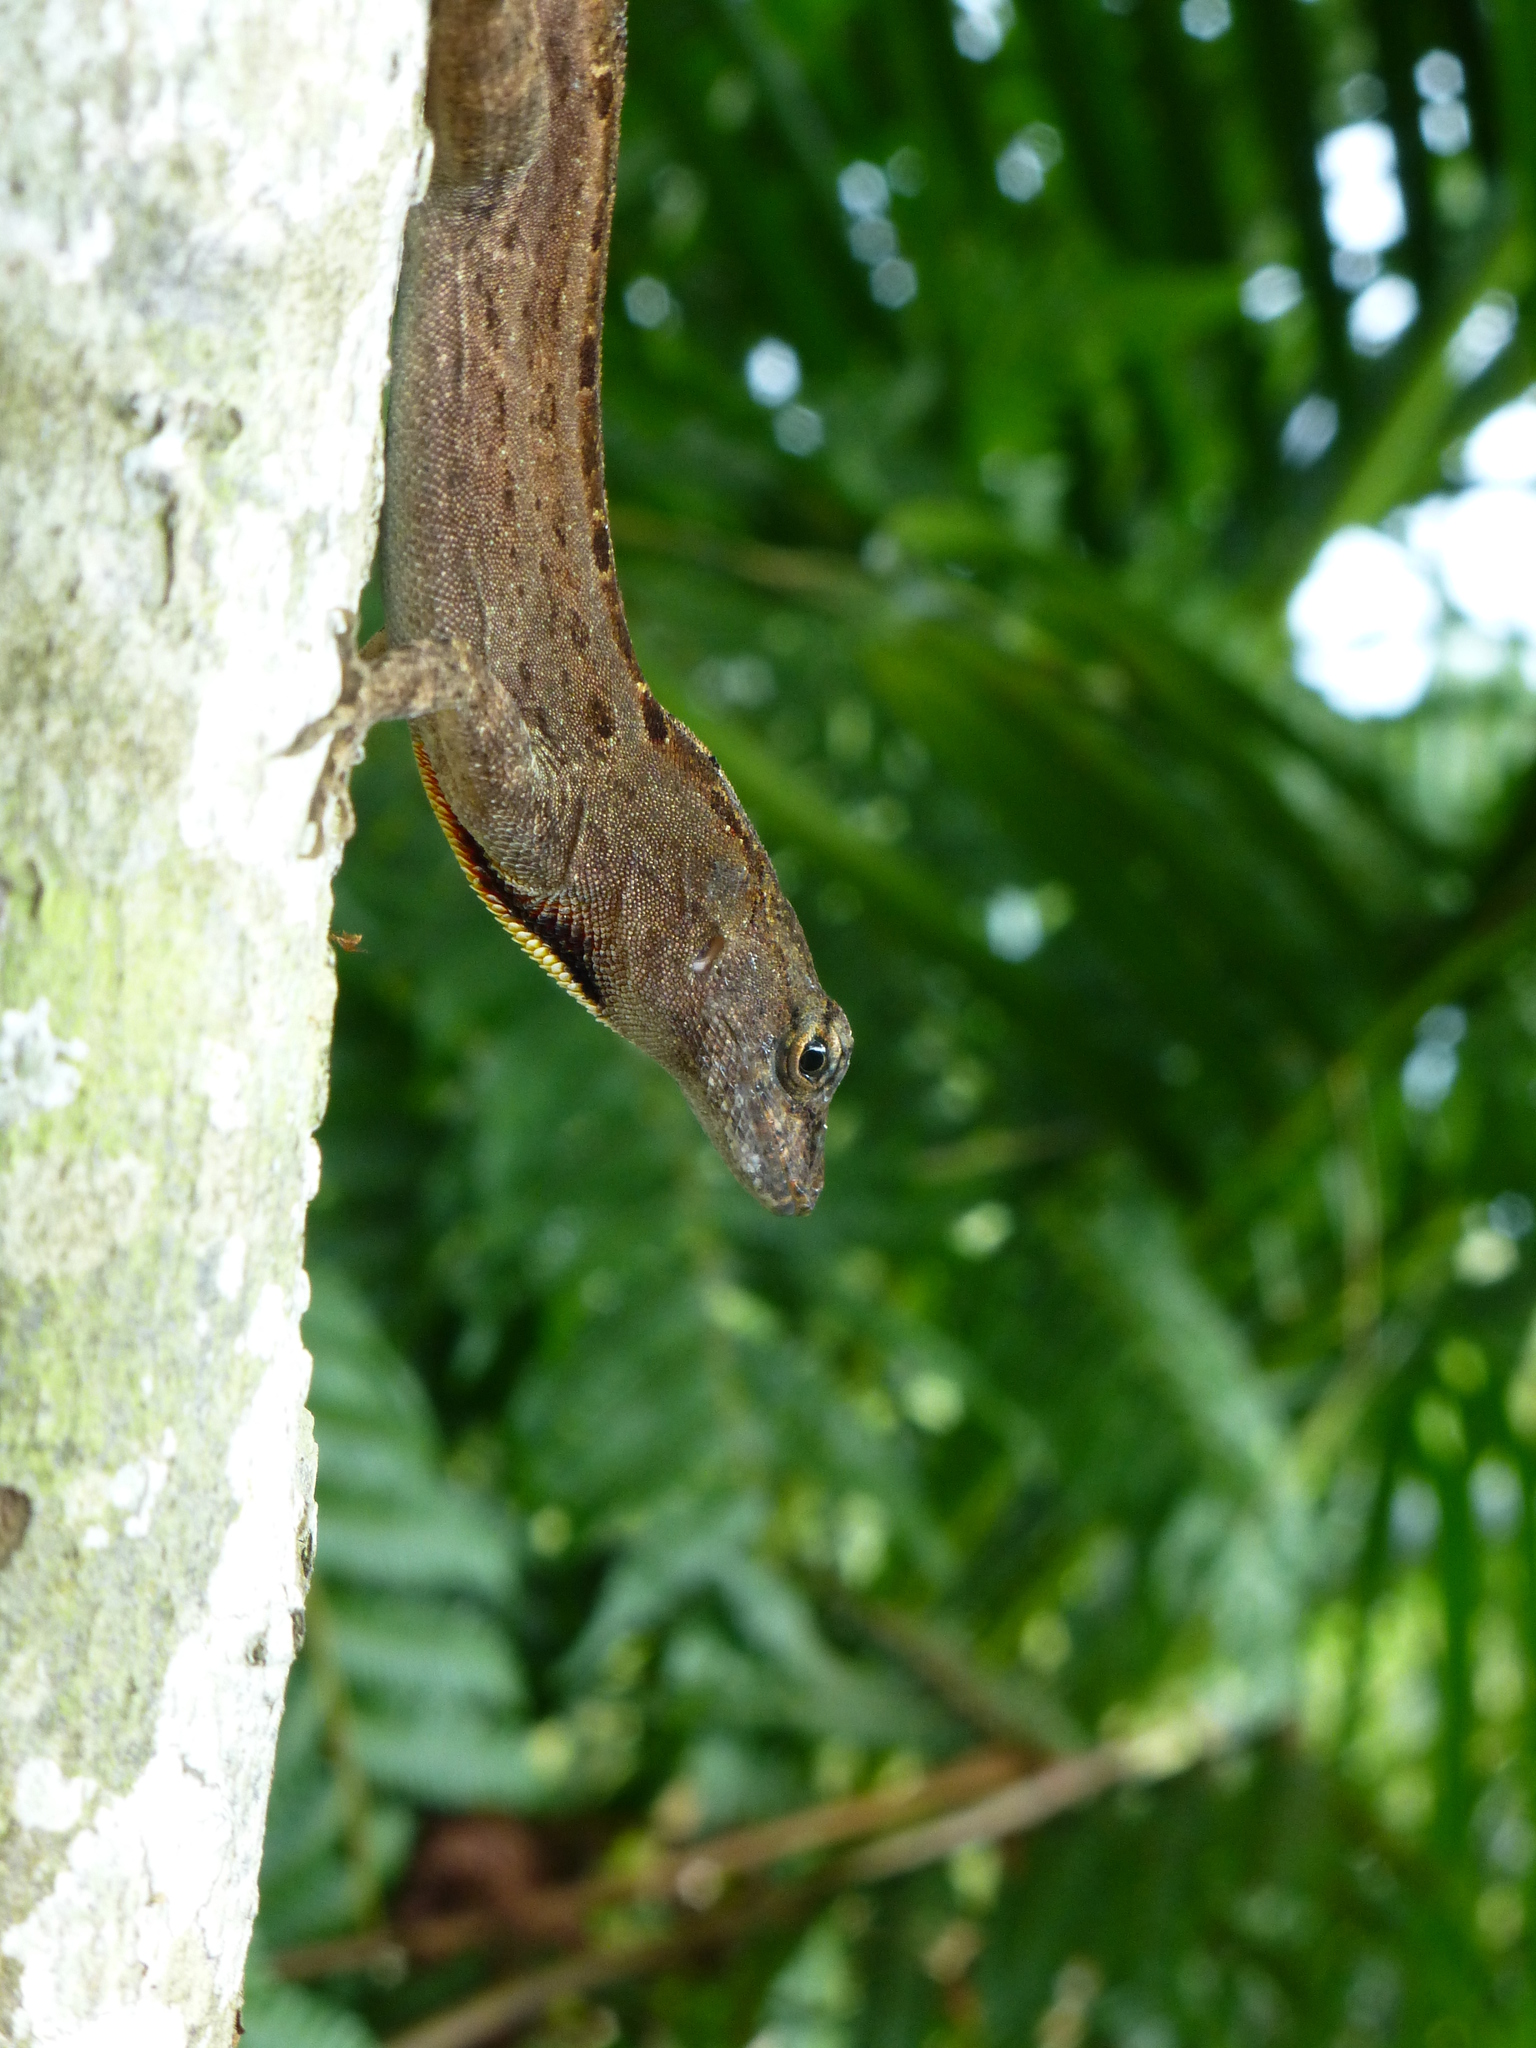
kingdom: Animalia
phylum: Chordata
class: Squamata
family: Dactyloidae
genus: Anolis
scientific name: Anolis sagrei
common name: Brown anole
